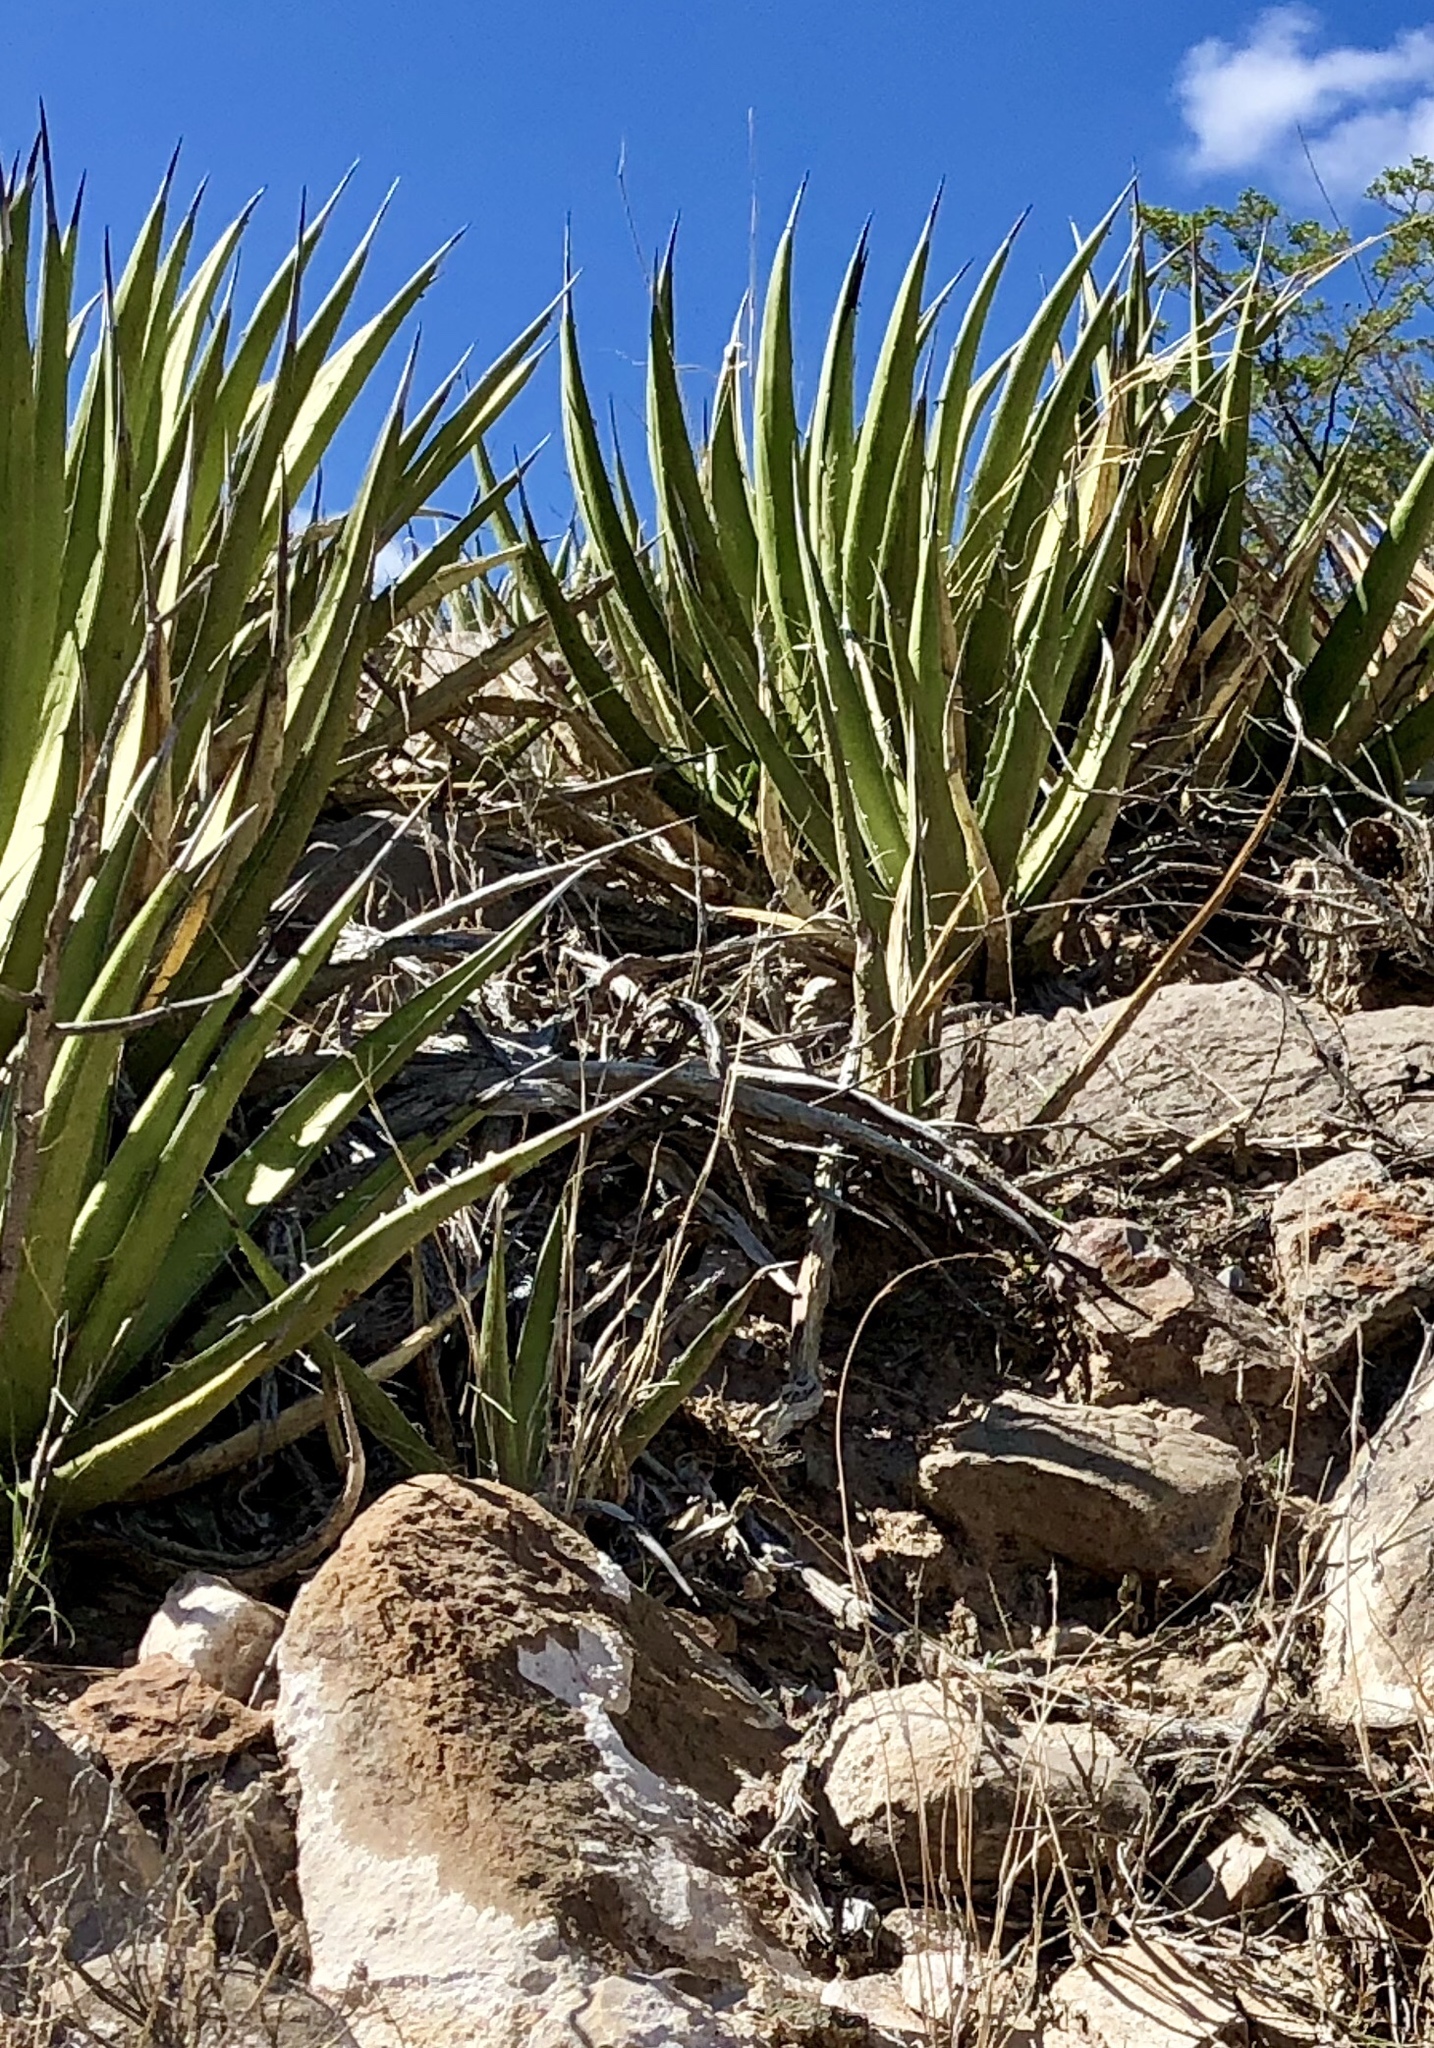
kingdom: Plantae
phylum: Tracheophyta
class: Liliopsida
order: Asparagales
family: Asparagaceae
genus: Agave
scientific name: Agave lechuguilla
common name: Lecheguilla agave
